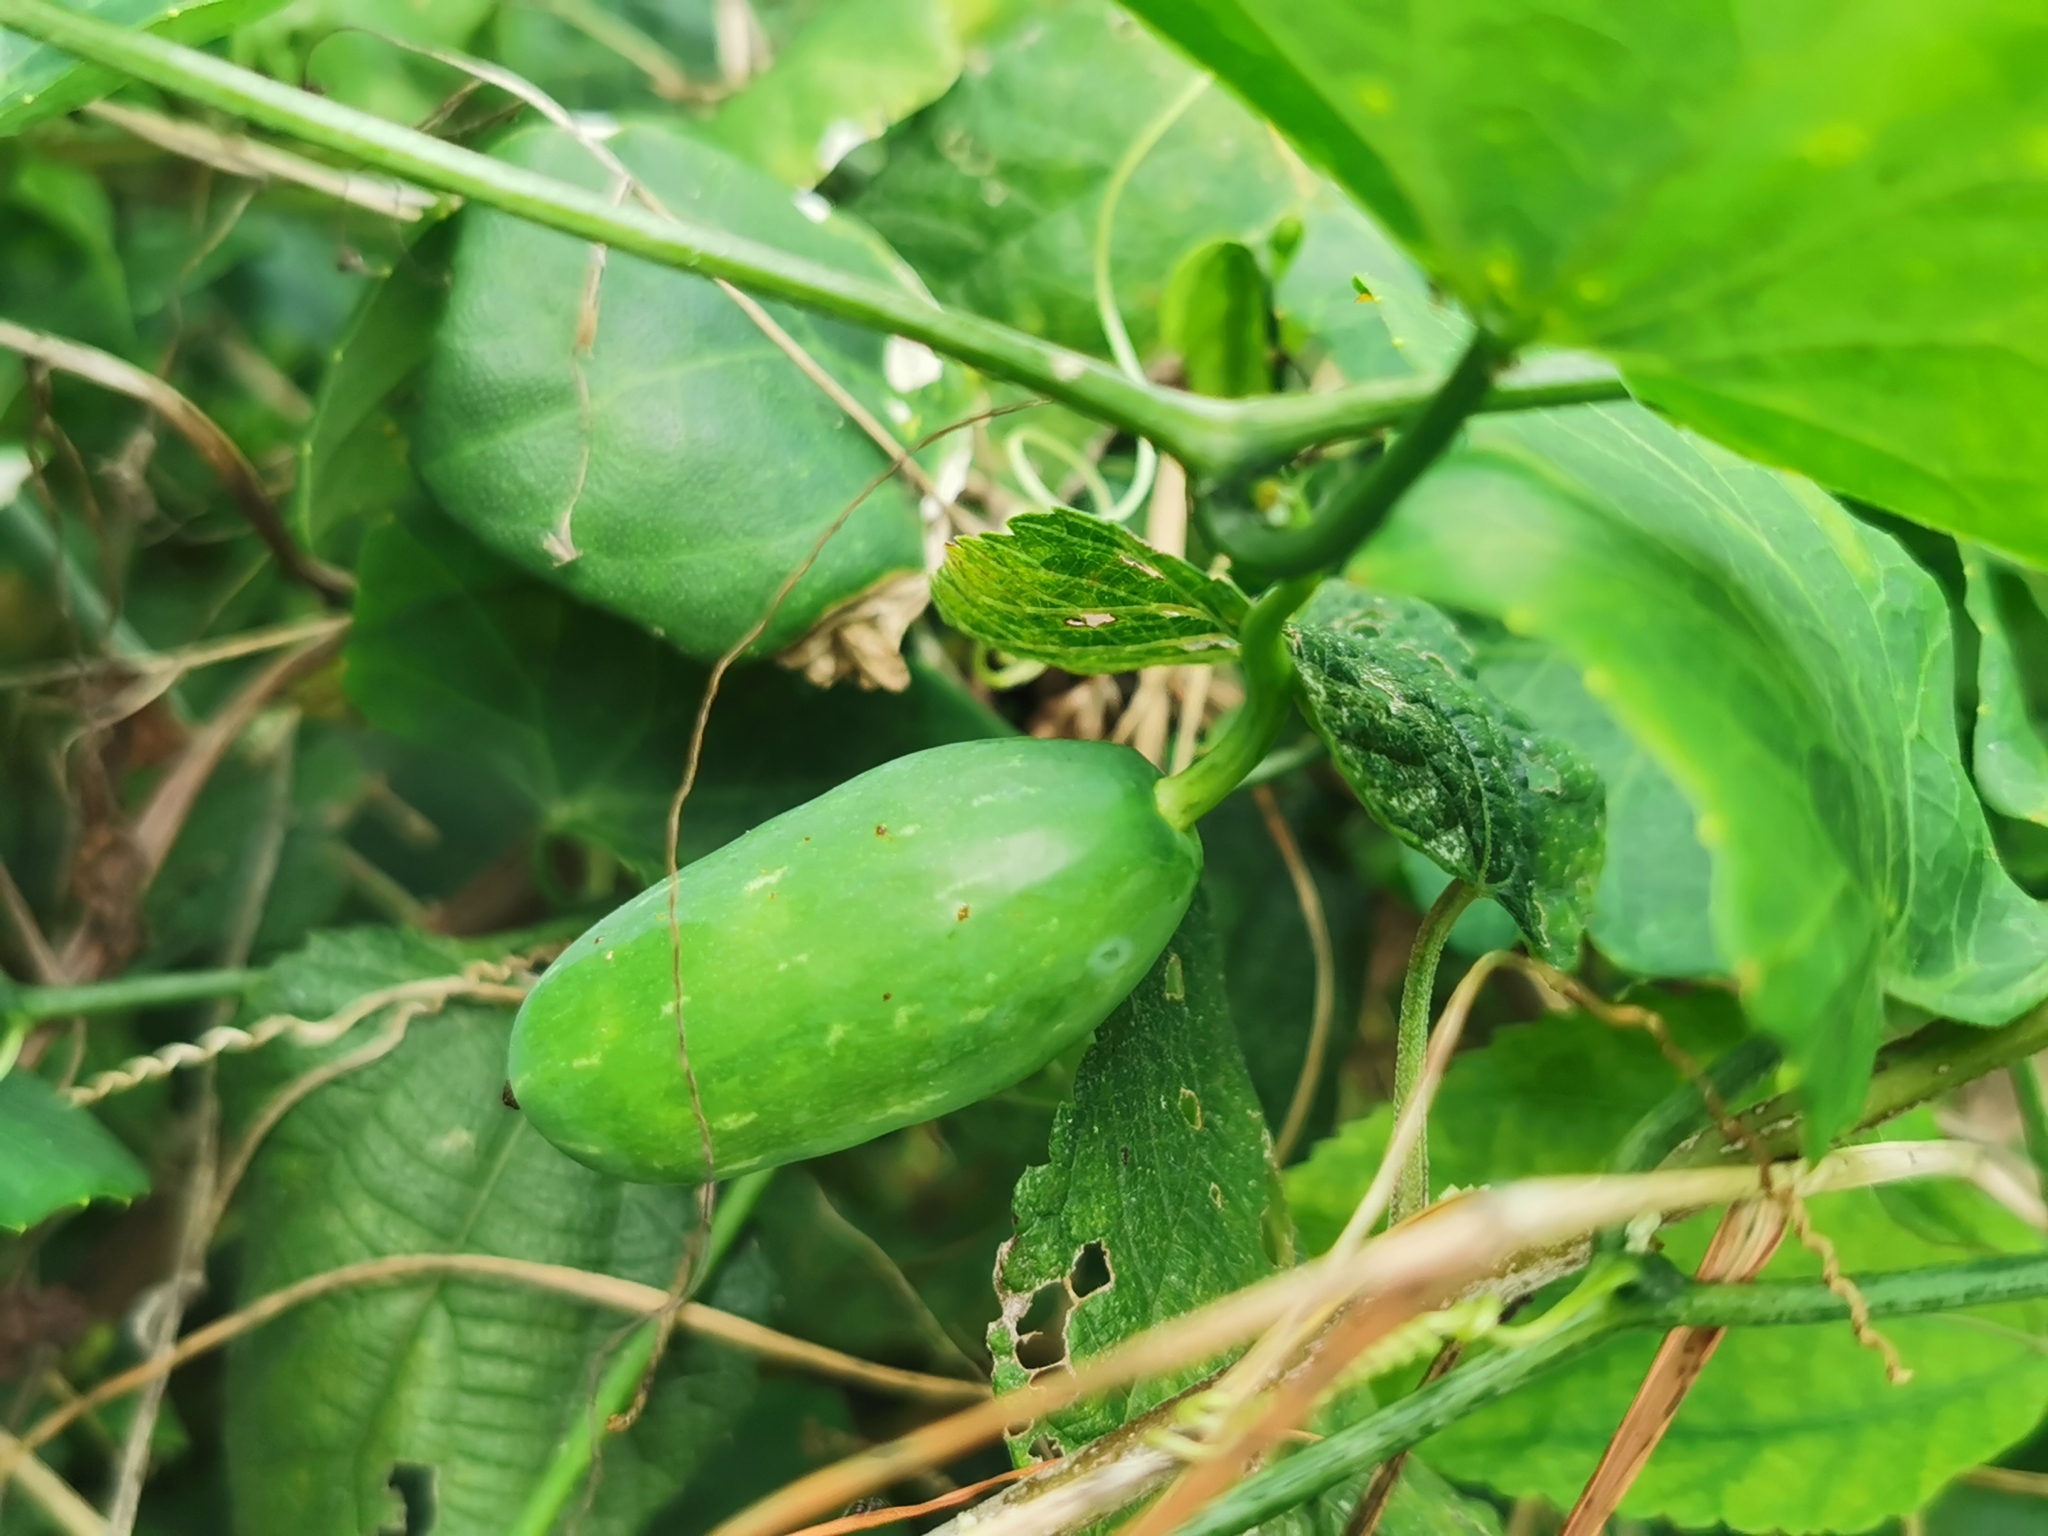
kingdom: Plantae
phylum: Tracheophyta
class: Magnoliopsida
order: Cucurbitales
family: Cucurbitaceae
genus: Coccinia
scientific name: Coccinia grandis
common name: Ivy gourd
